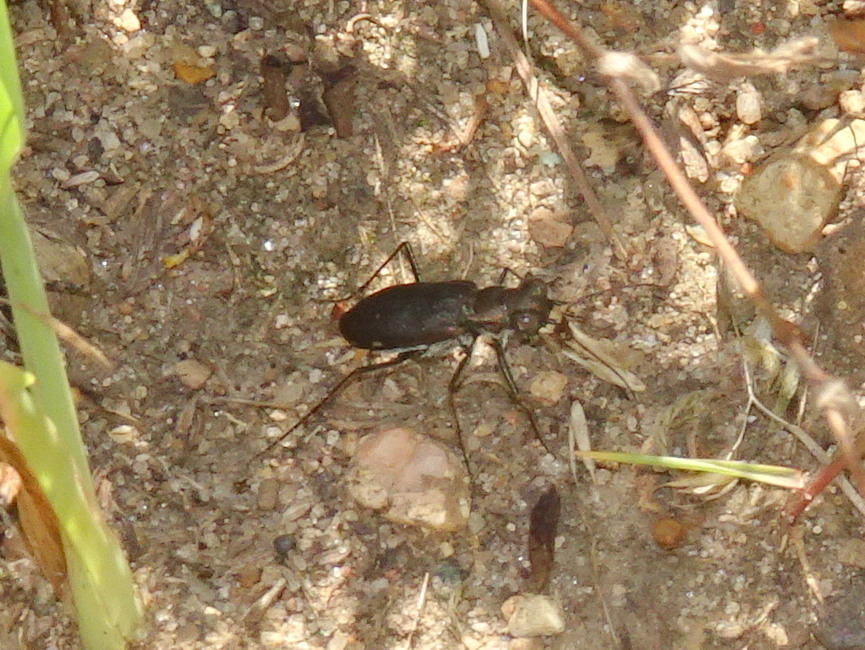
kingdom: Animalia
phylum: Arthropoda
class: Insecta
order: Coleoptera
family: Carabidae
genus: Cicindela
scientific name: Cicindela punctulata
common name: Punctured tiger beetle
